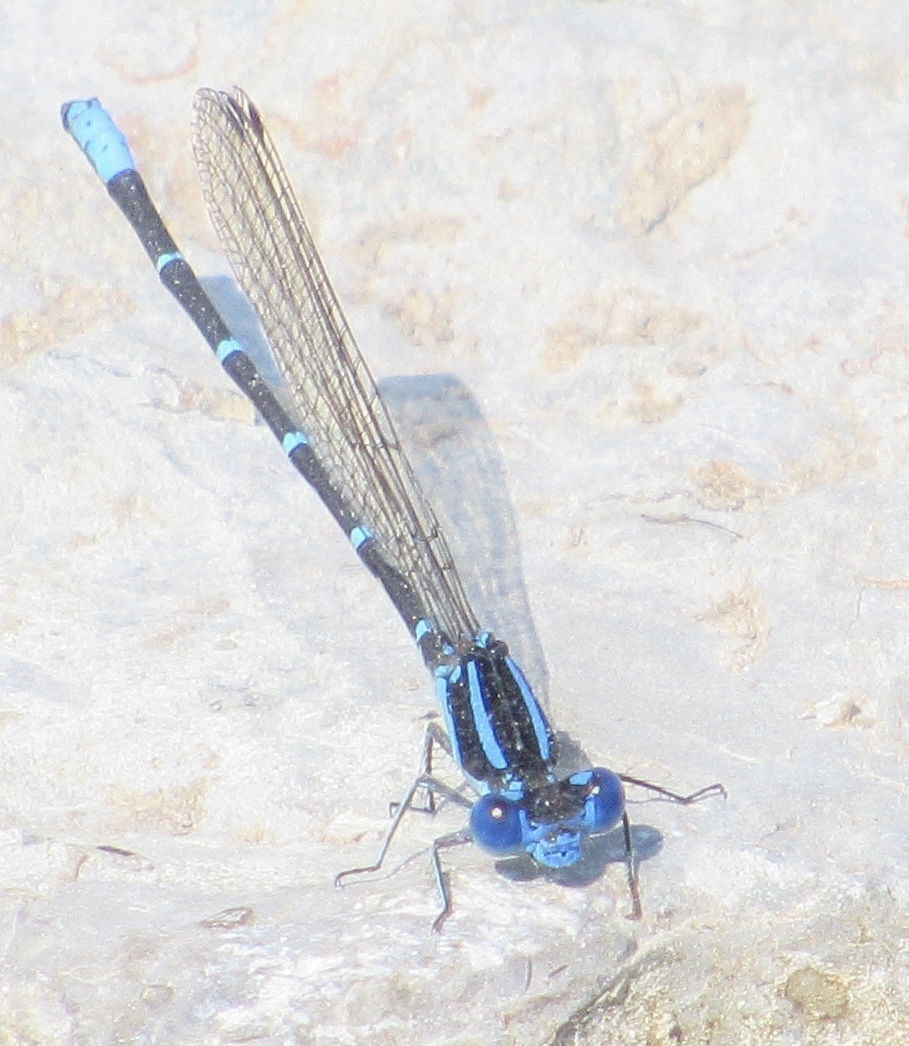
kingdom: Animalia
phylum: Arthropoda
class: Insecta
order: Odonata
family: Coenagrionidae
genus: Argia
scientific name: Argia sedula
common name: Blue-ringed dancer
